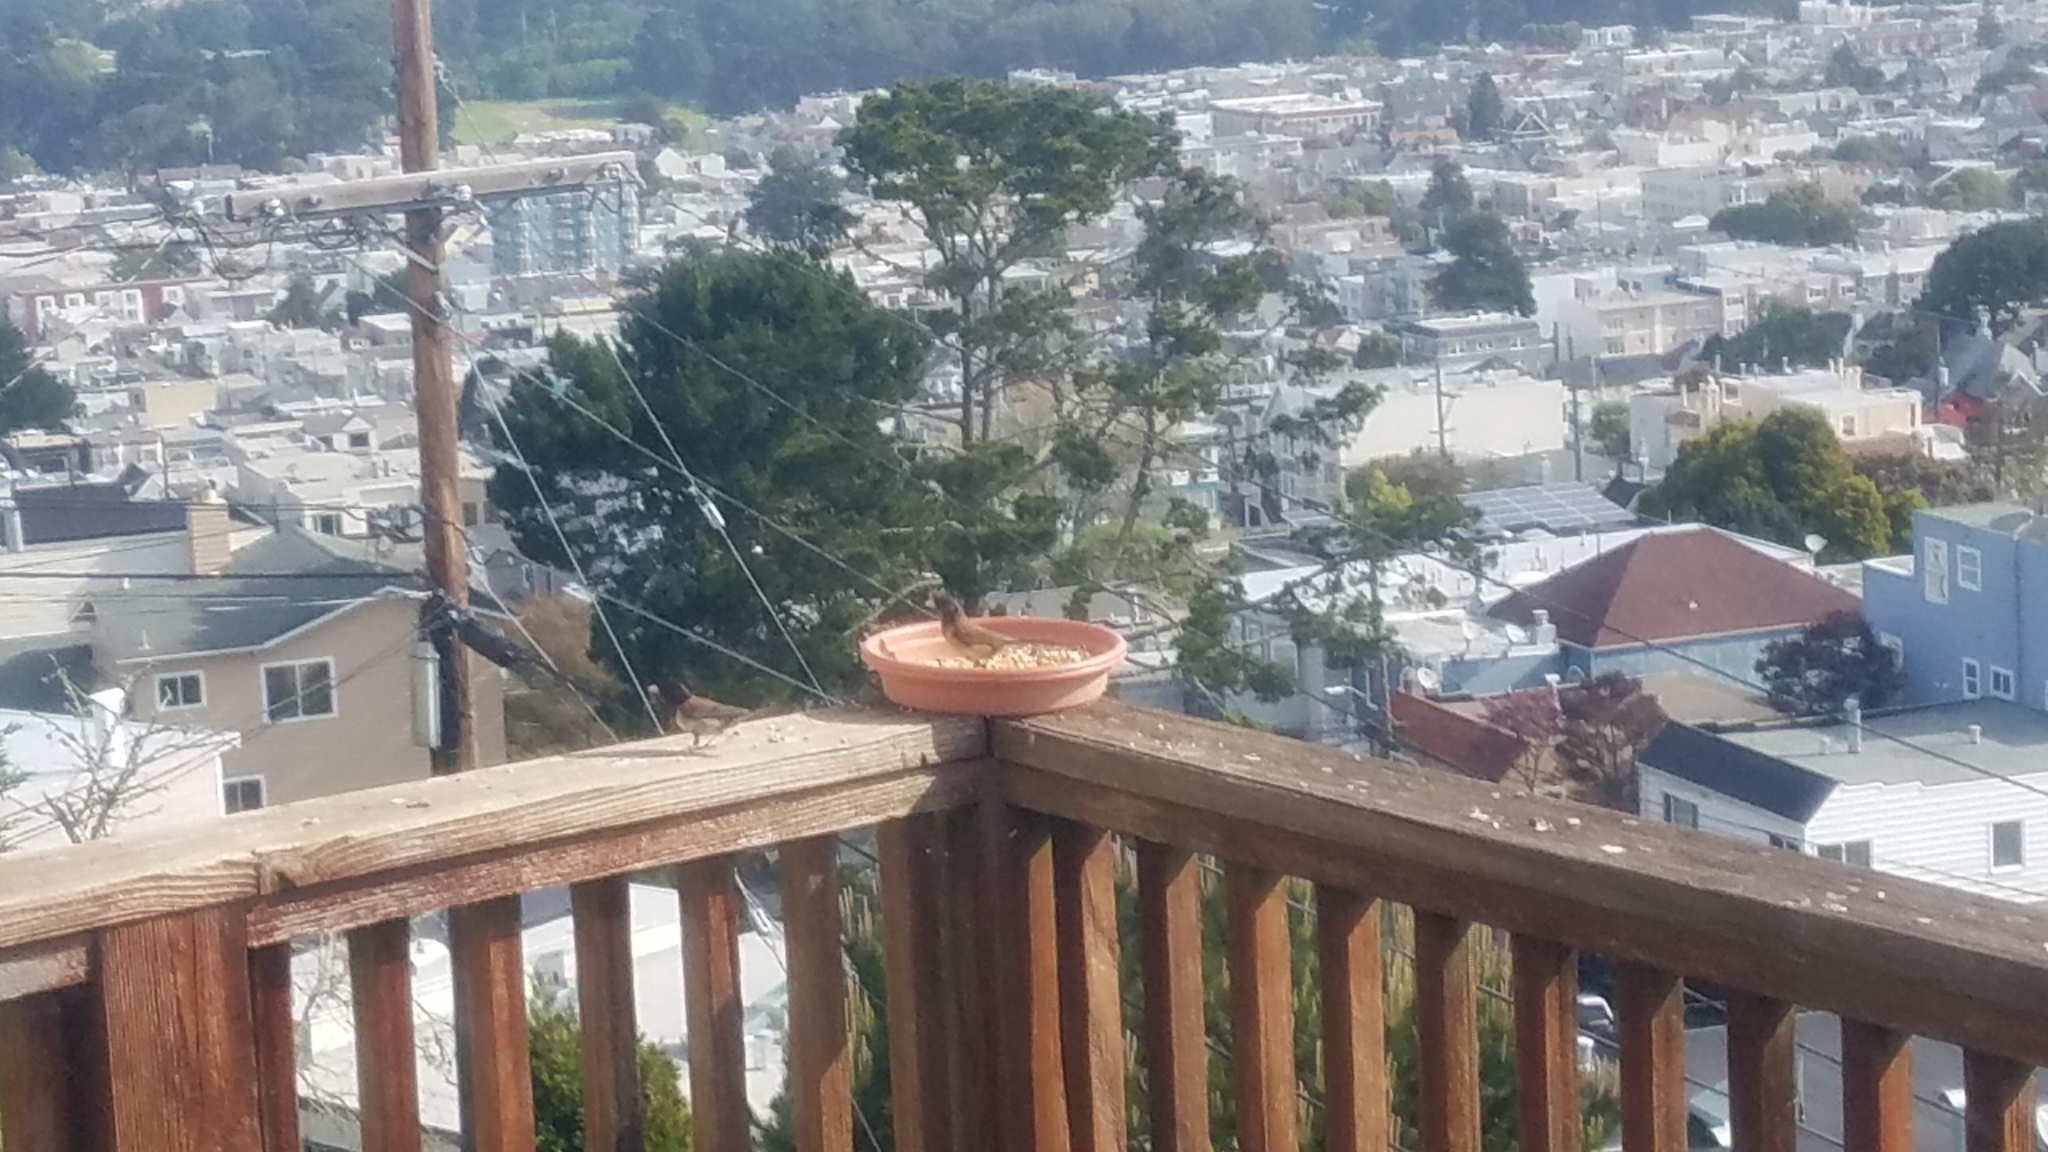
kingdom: Animalia
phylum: Chordata
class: Aves
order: Passeriformes
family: Passerellidae
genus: Junco
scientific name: Junco hyemalis
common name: Dark-eyed junco
